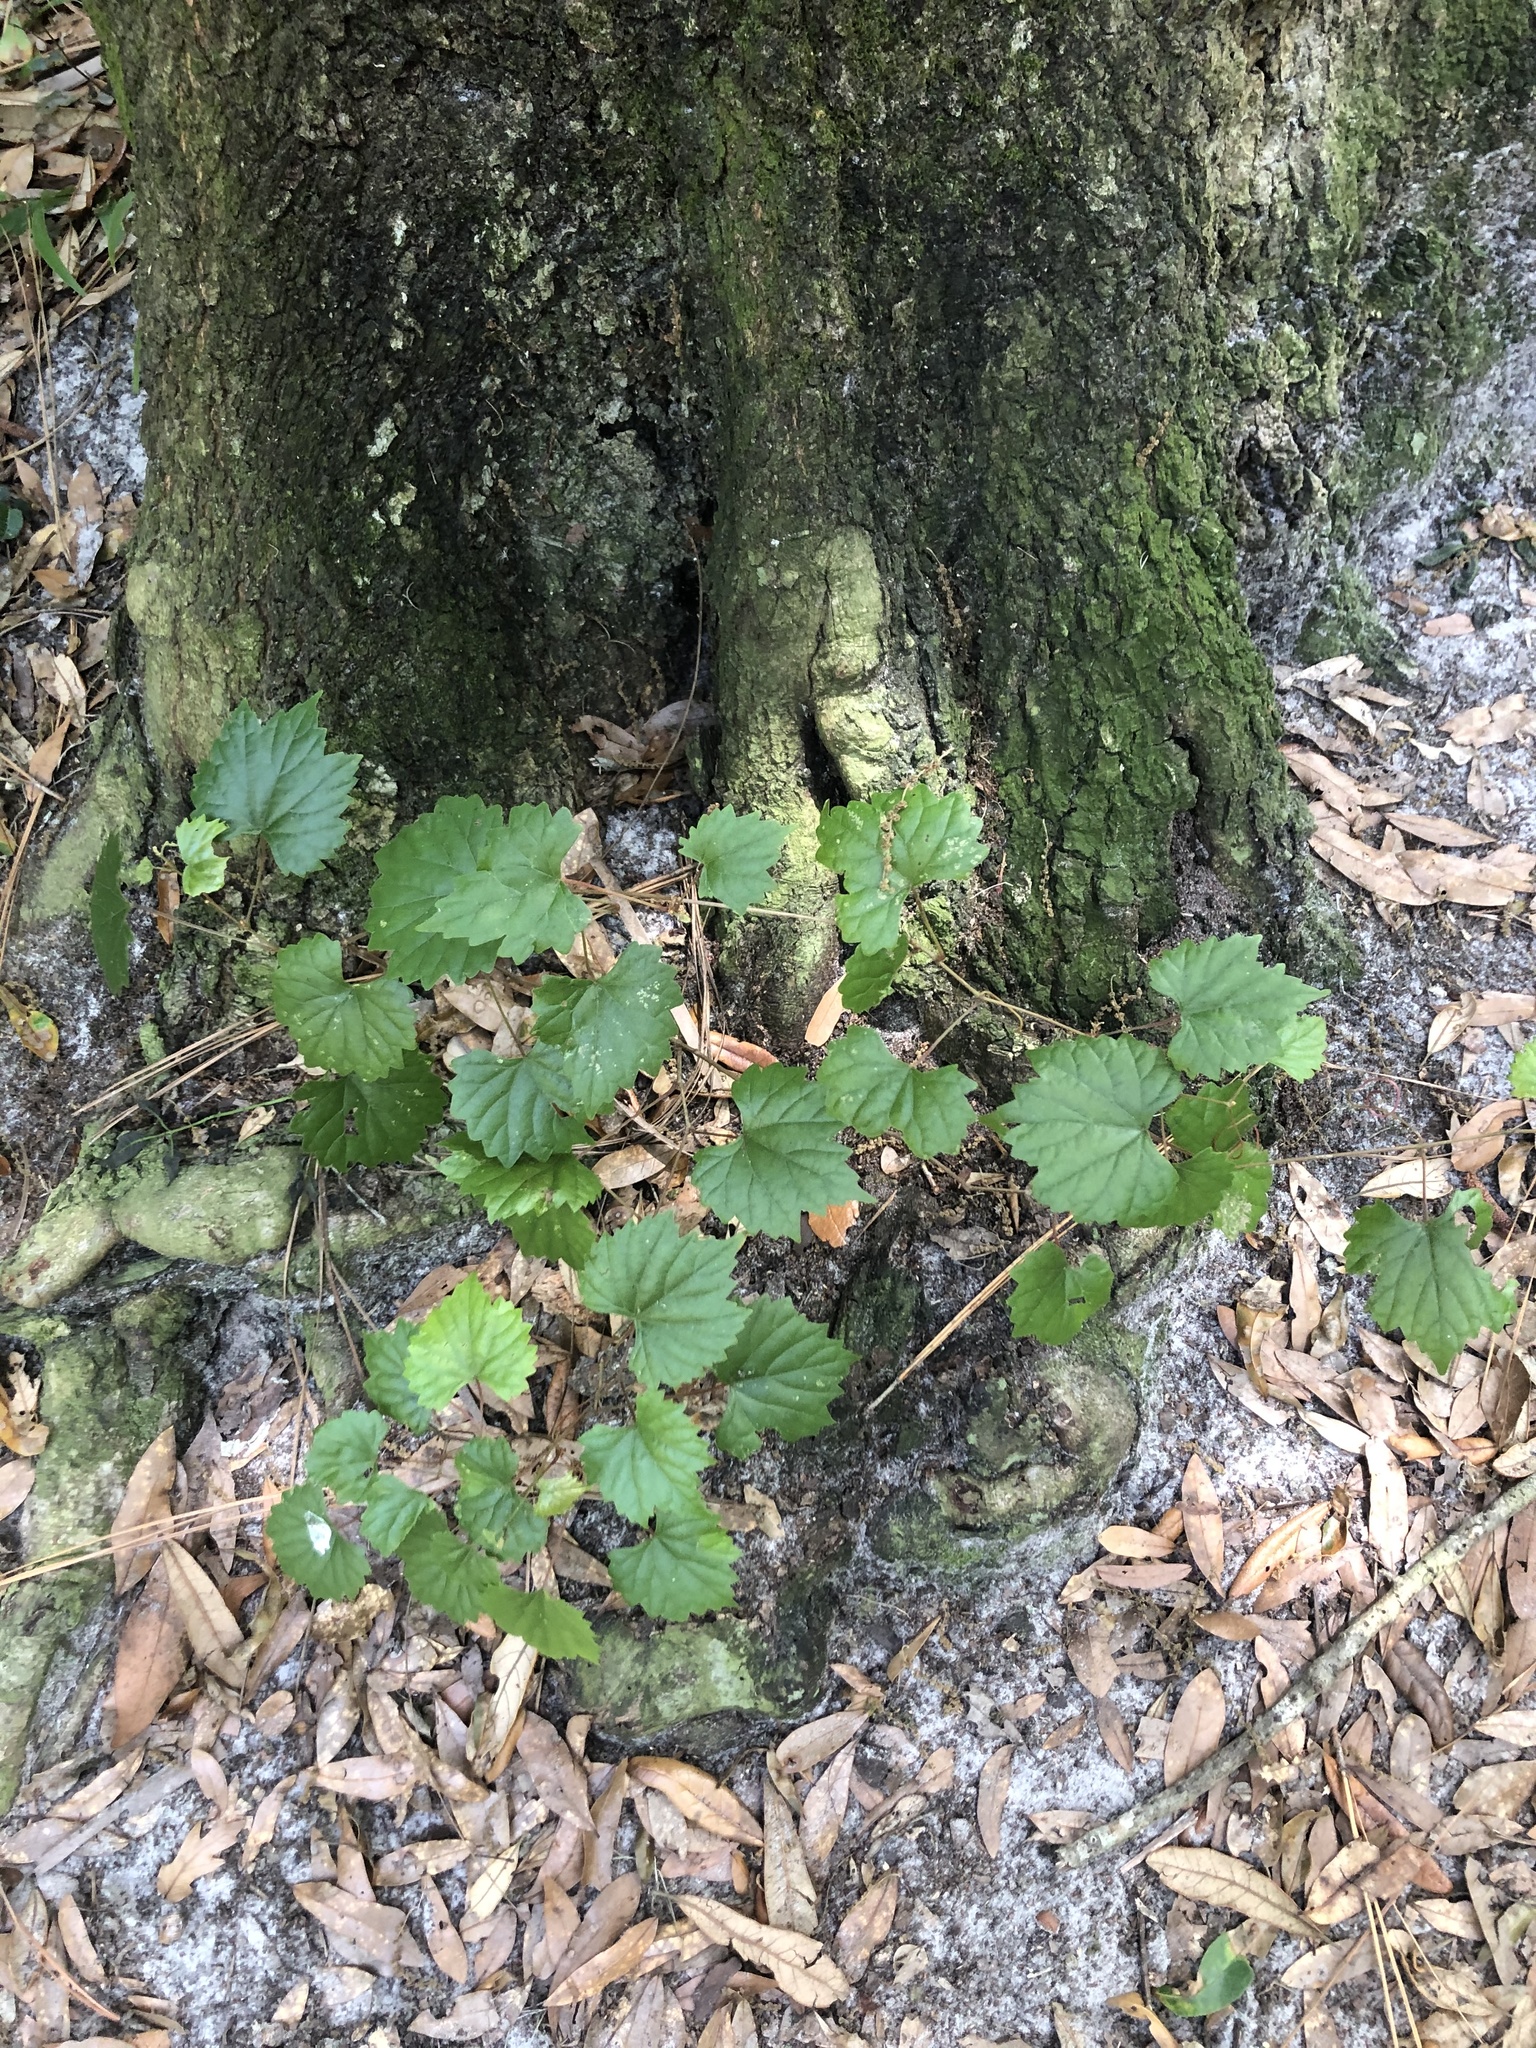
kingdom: Plantae
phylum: Tracheophyta
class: Magnoliopsida
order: Vitales
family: Vitaceae
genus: Vitis
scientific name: Vitis rotundifolia
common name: Muscadine grape
